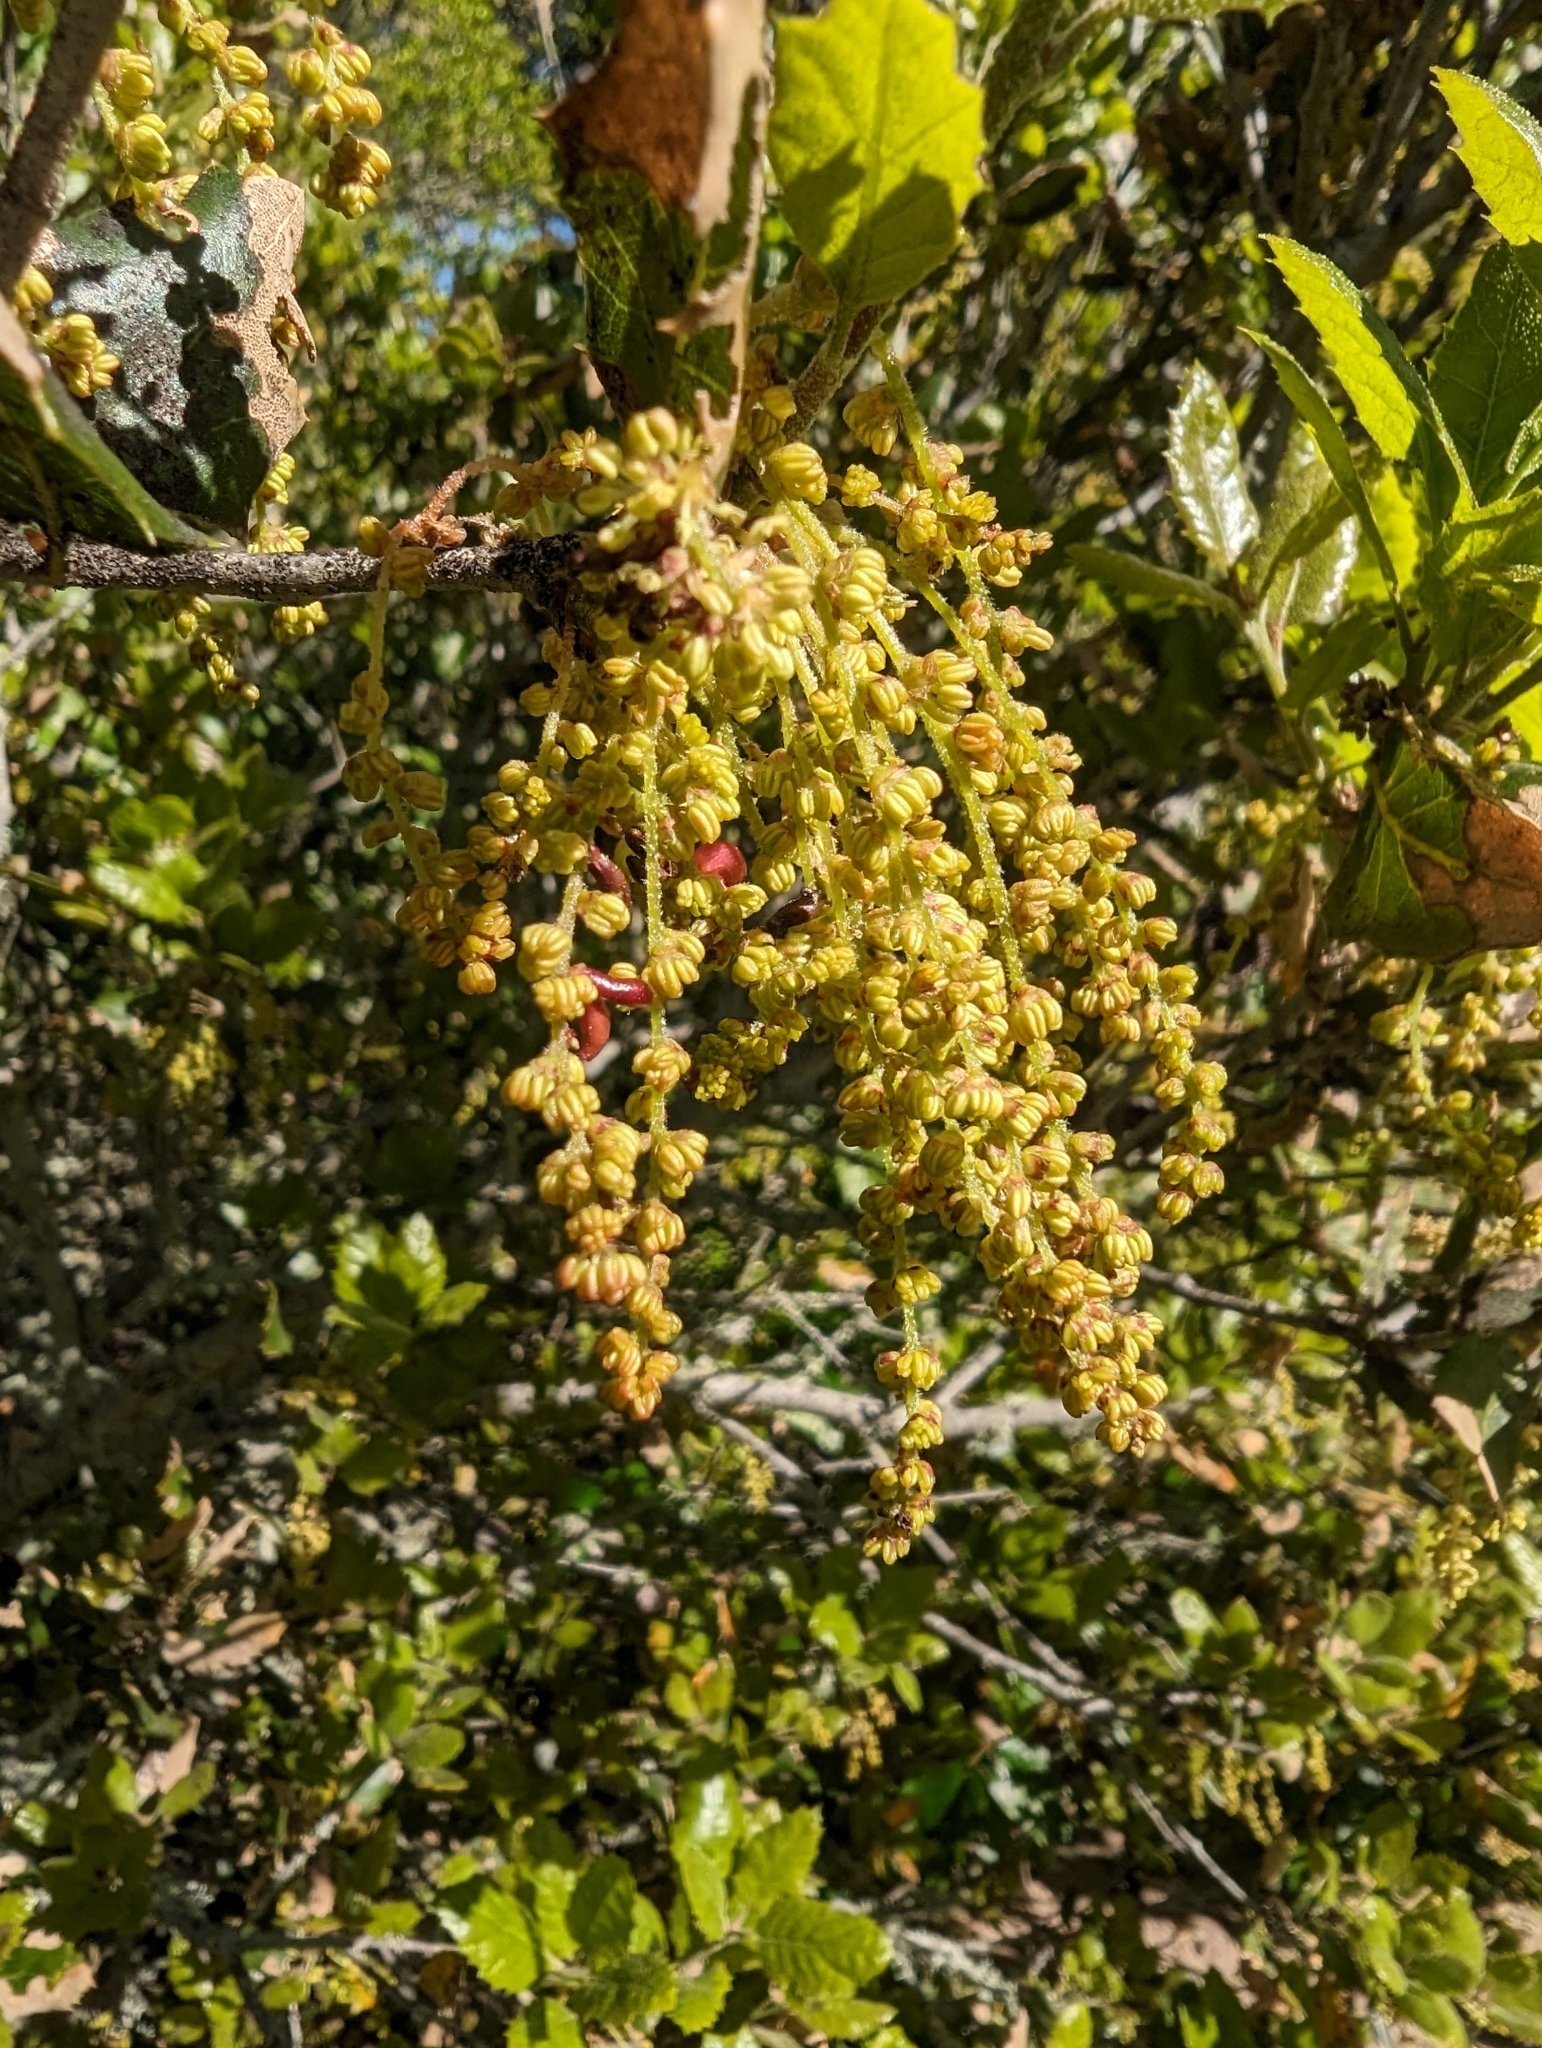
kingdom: Plantae
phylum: Tracheophyta
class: Magnoliopsida
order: Fagales
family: Fagaceae
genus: Quercus
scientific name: Quercus agrifolia
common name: California live oak
